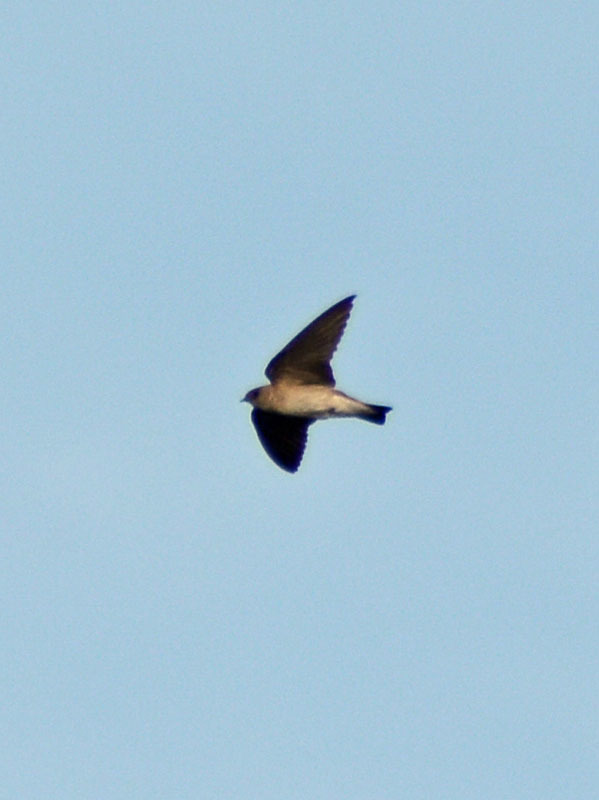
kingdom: Animalia
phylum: Chordata
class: Aves
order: Passeriformes
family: Hirundinidae
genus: Stelgidopteryx
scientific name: Stelgidopteryx serripennis
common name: Northern rough-winged swallow
